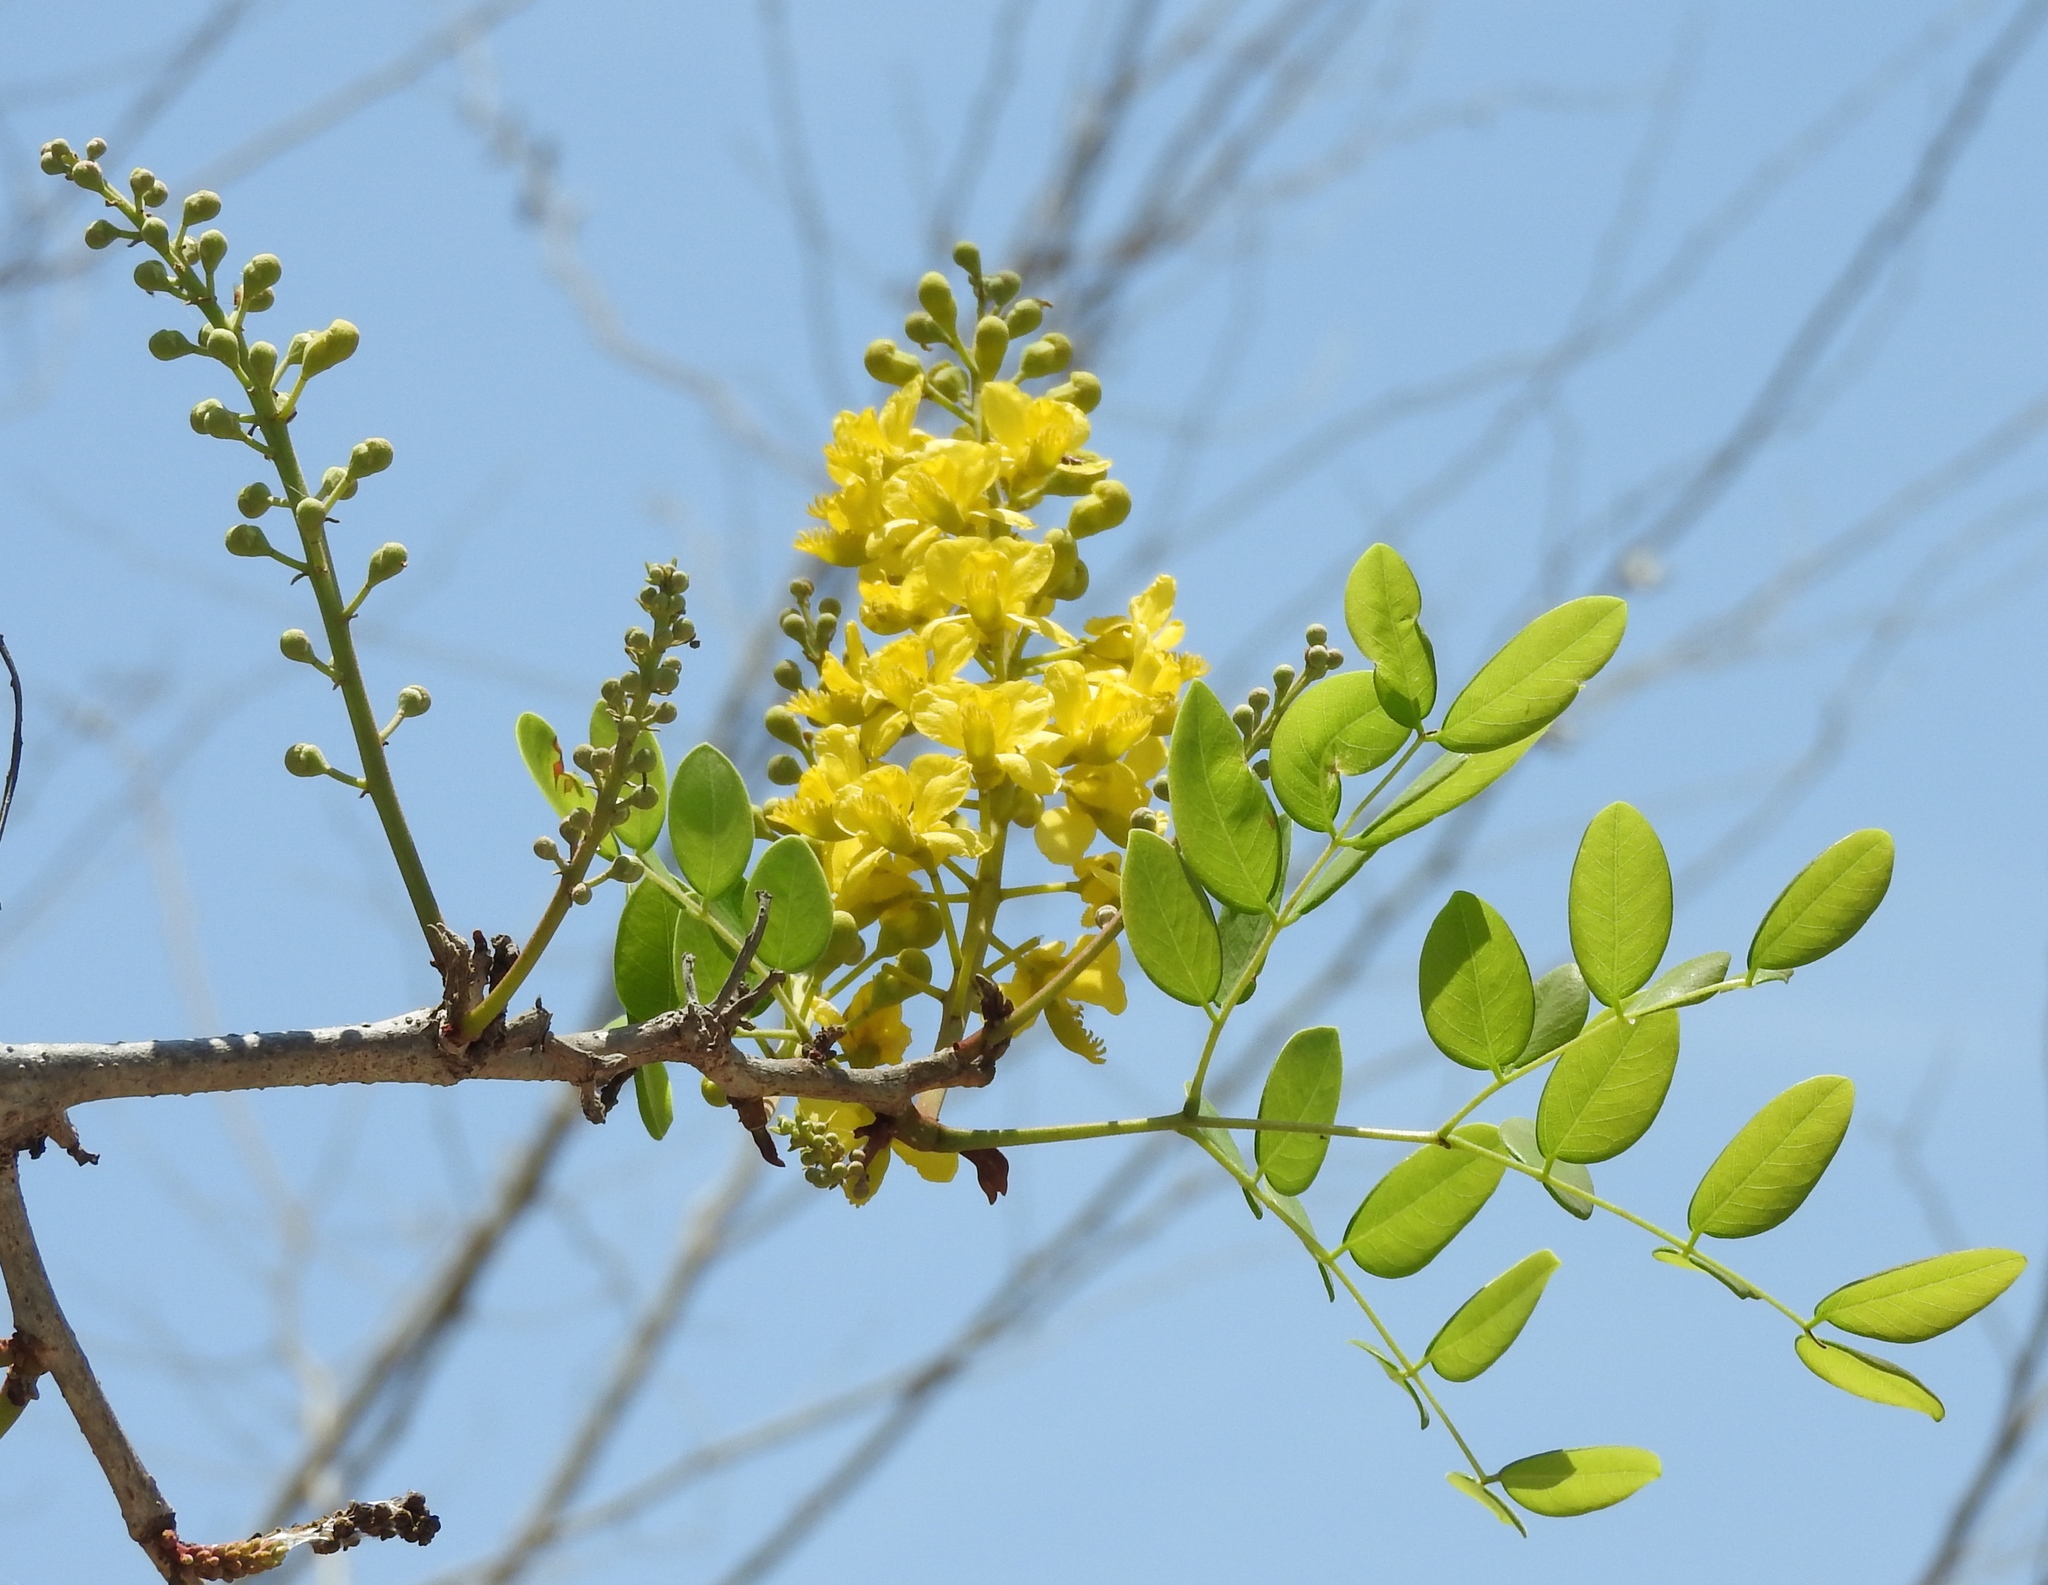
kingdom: Plantae
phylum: Tracheophyta
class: Magnoliopsida
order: Fabales
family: Fabaceae
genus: Coulteria
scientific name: Coulteria platyloba
